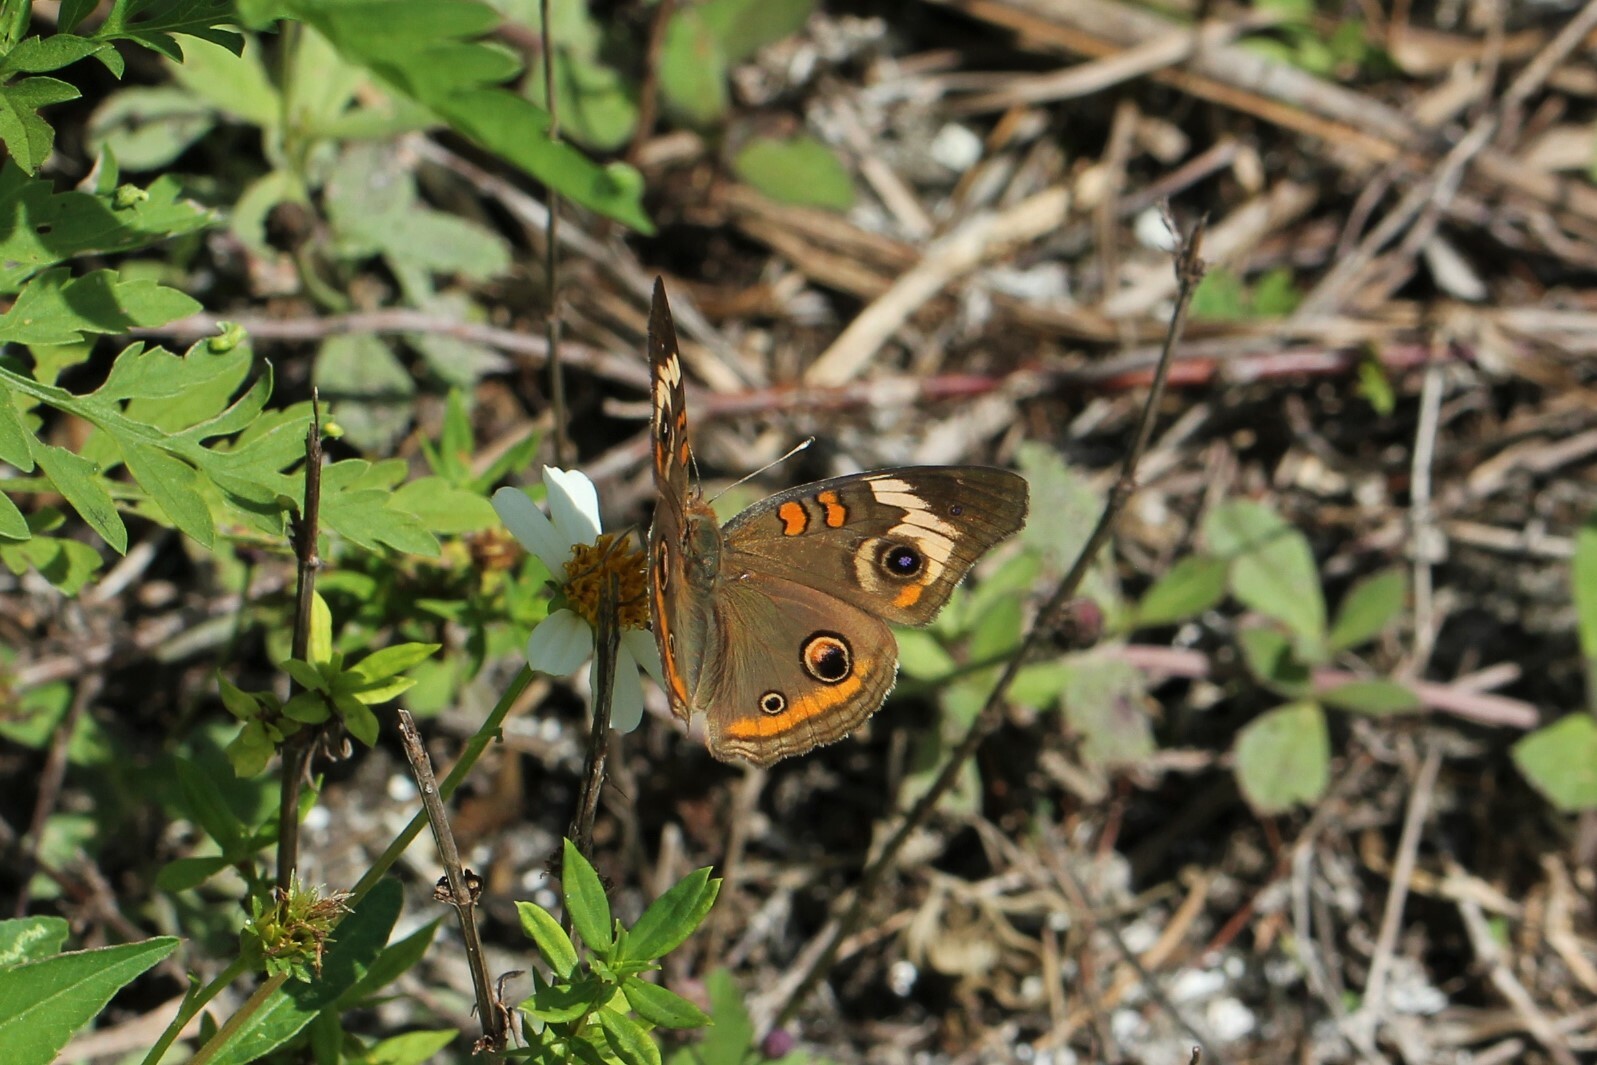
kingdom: Animalia
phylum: Arthropoda
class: Insecta
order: Lepidoptera
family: Nymphalidae
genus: Junonia
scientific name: Junonia coenia
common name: Common buckeye
